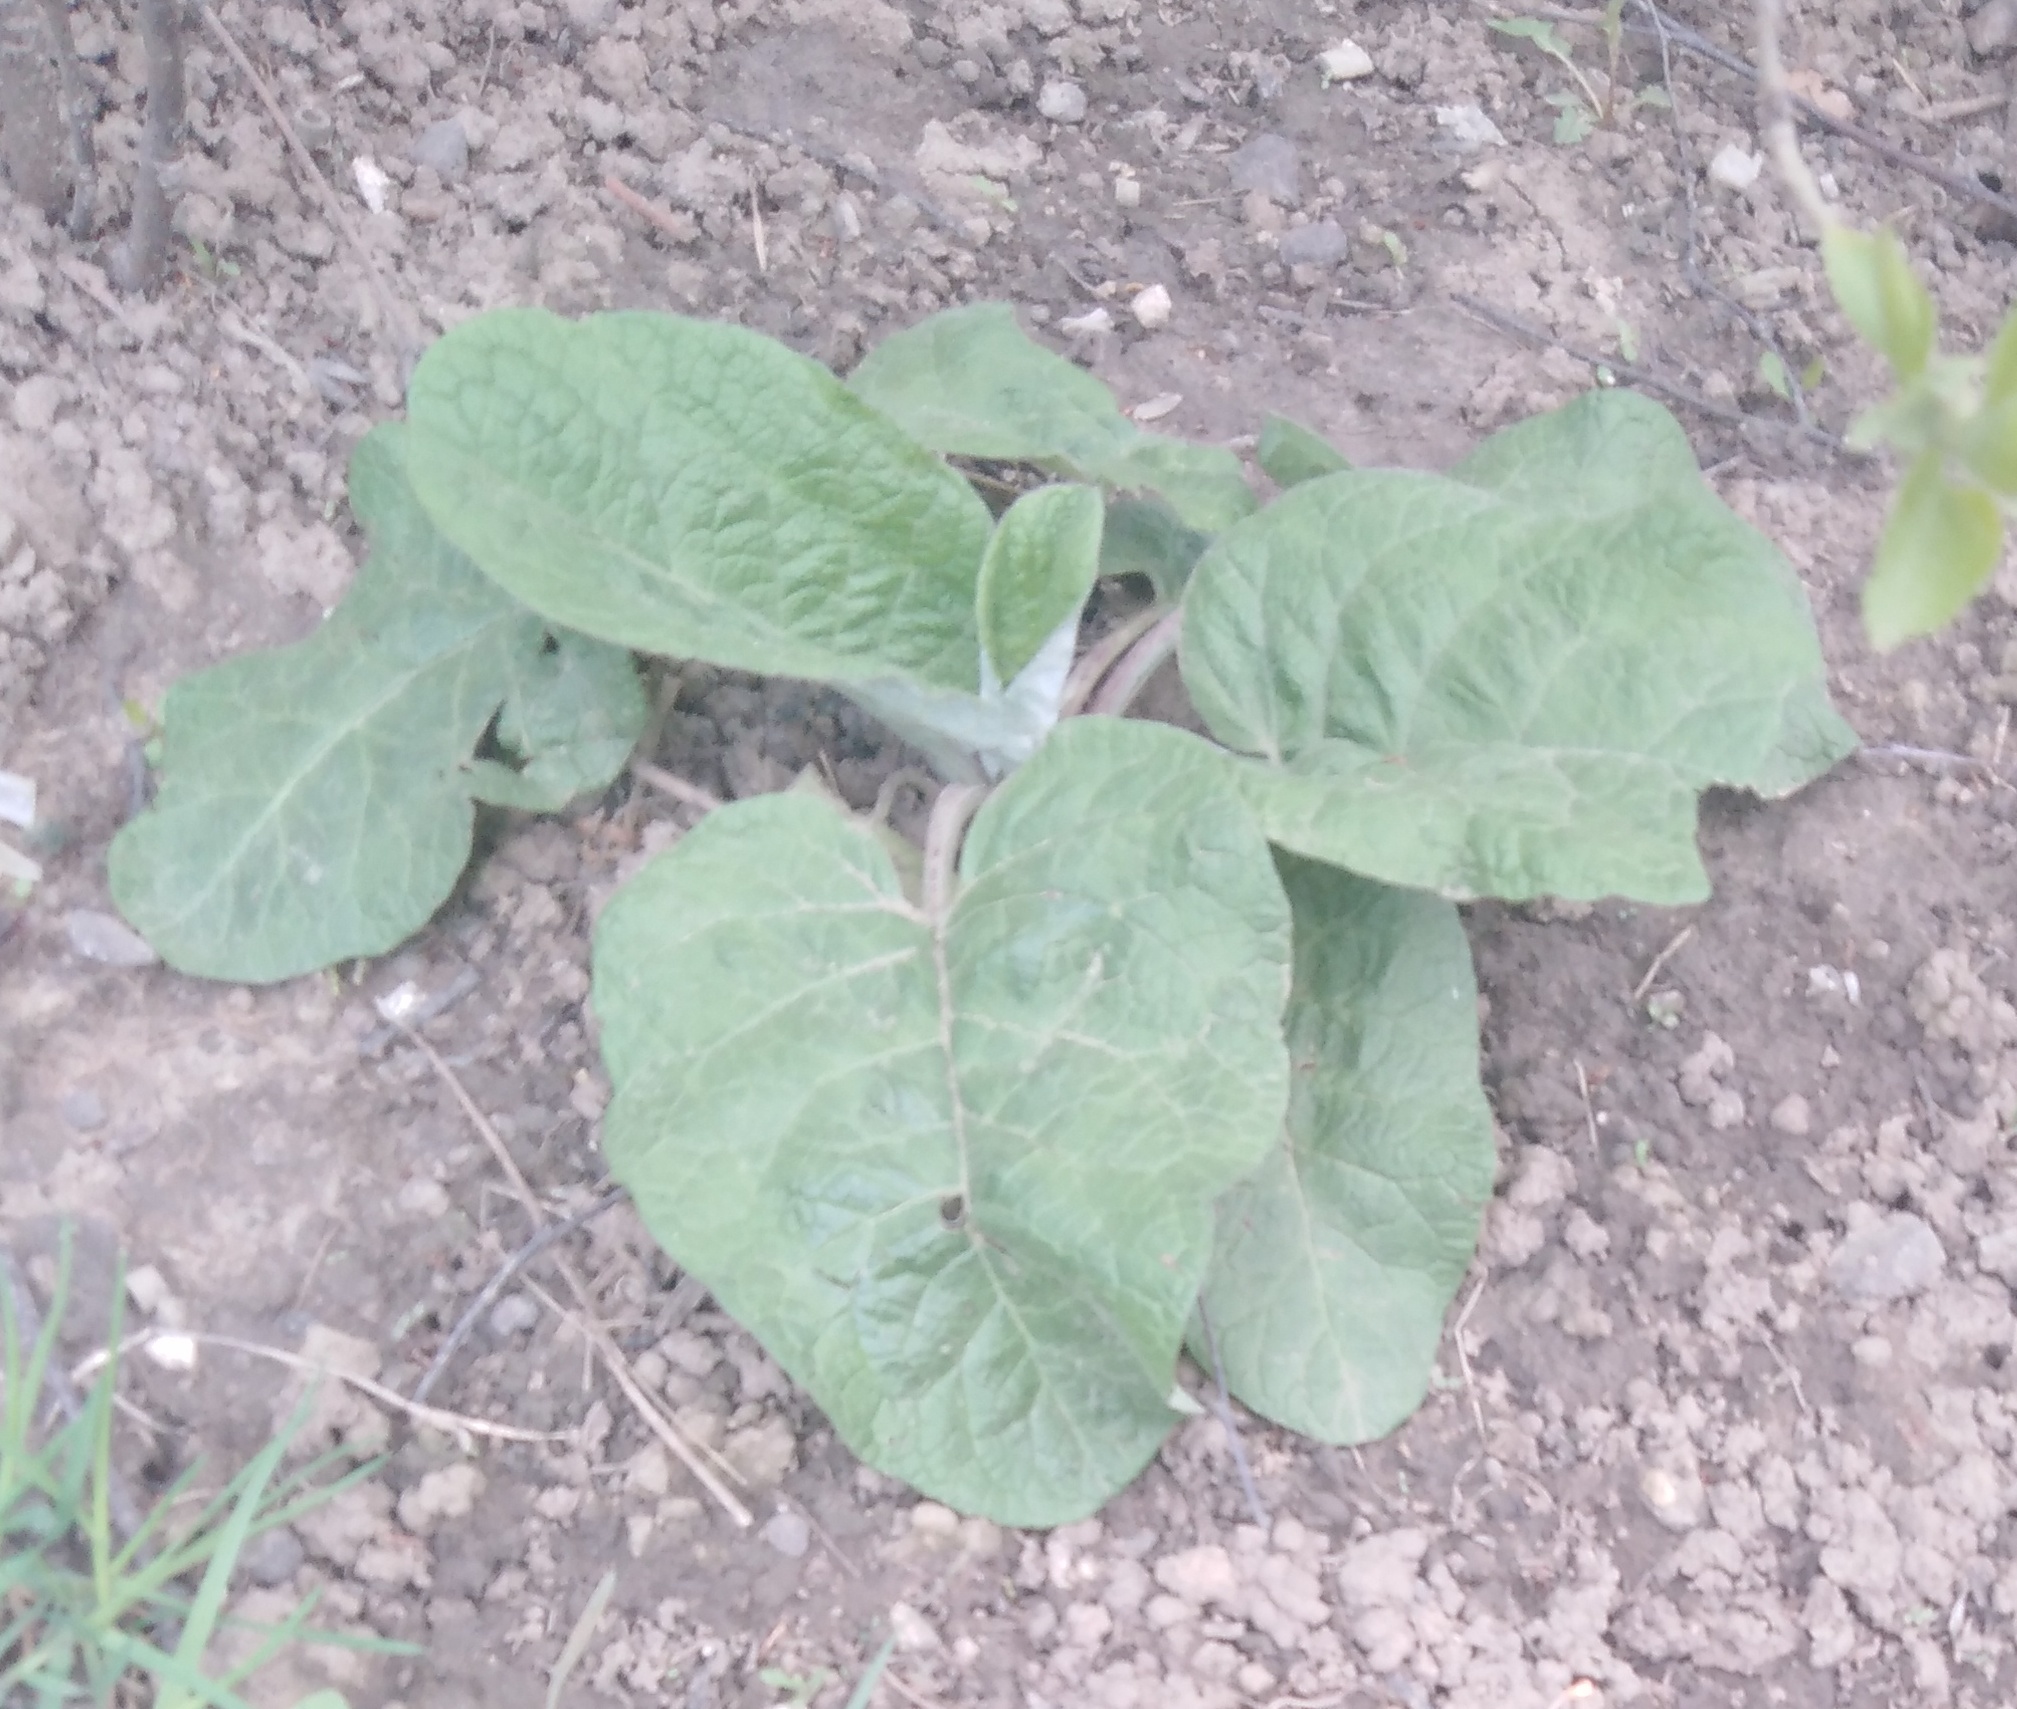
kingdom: Plantae
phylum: Tracheophyta
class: Magnoliopsida
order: Asterales
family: Asteraceae
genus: Arctium
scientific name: Arctium
